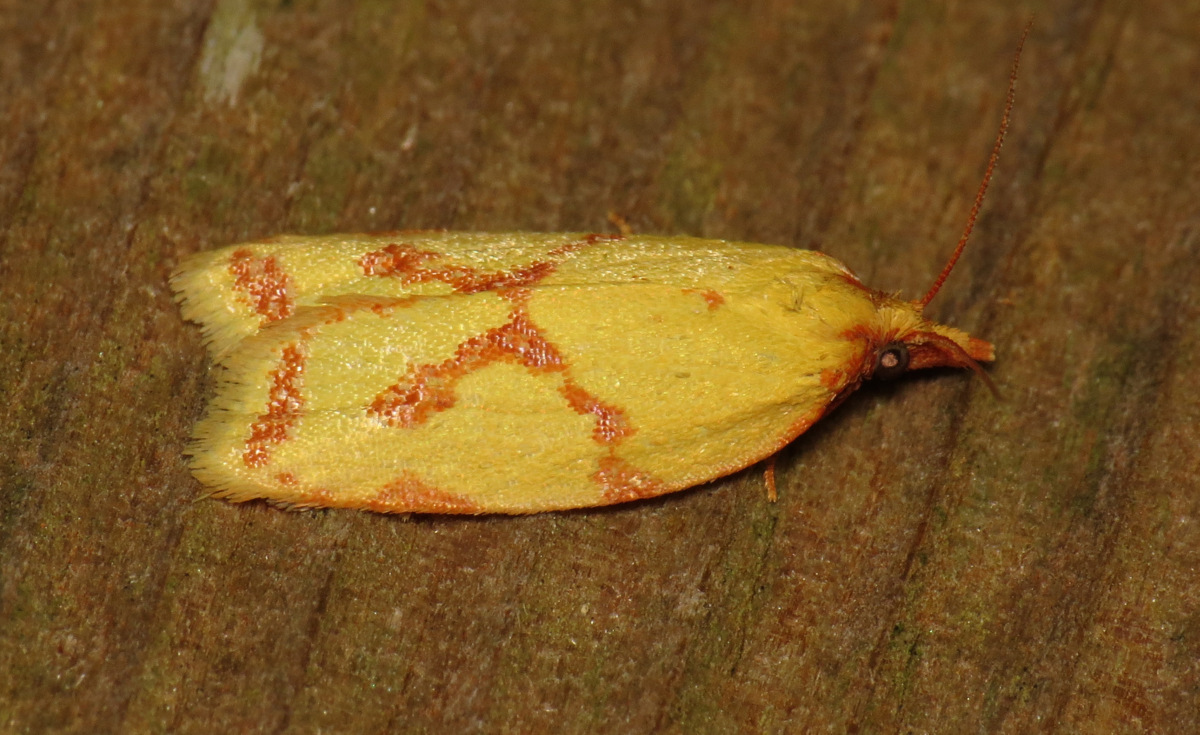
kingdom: Animalia
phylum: Arthropoda
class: Insecta
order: Lepidoptera
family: Tortricidae
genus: Sparganothis
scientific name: Sparganothis sulfureana
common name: Sparganothis fruitworm moth
